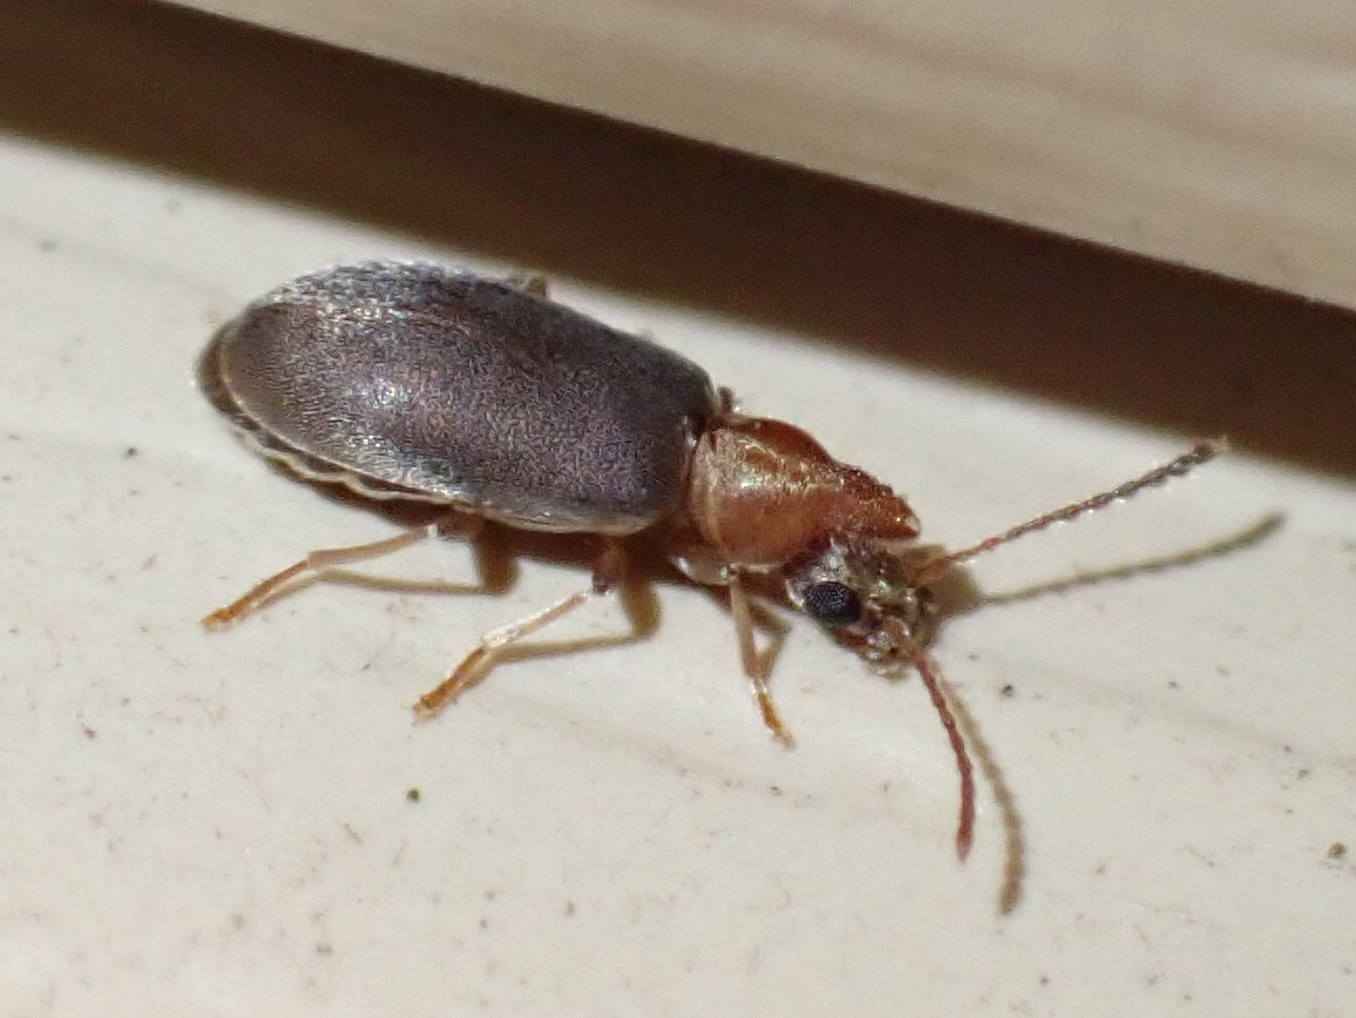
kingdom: Animalia
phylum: Arthropoda
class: Insecta
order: Coleoptera
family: Anthicidae
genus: Notoxus
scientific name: Notoxus murinipennis
